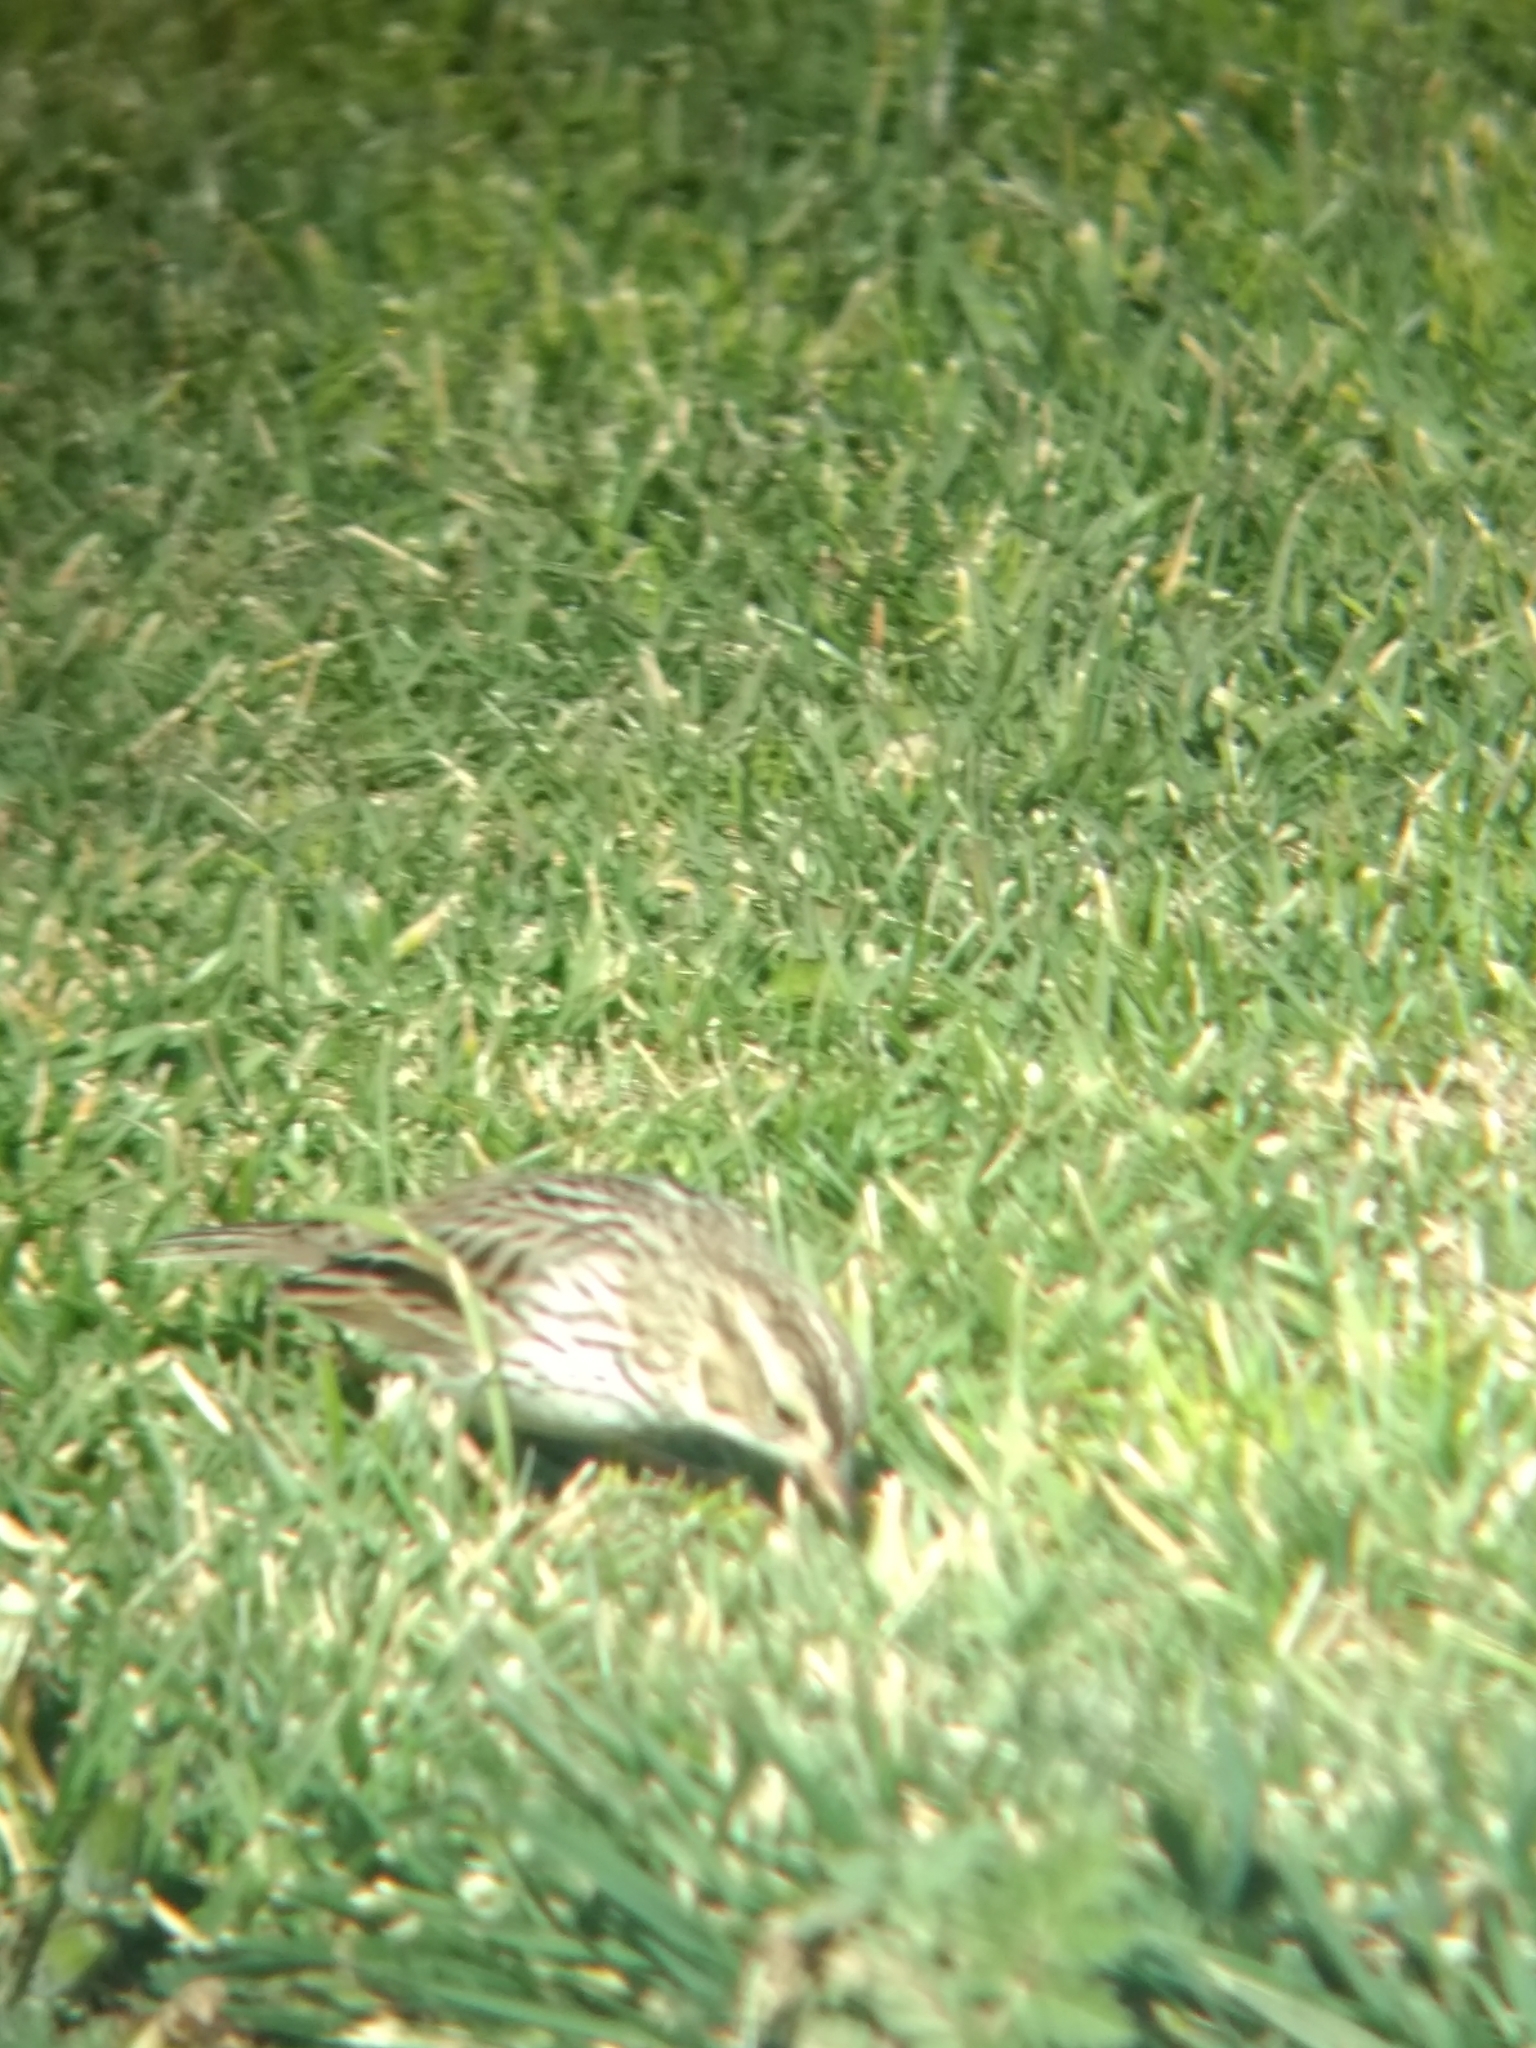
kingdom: Animalia
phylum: Chordata
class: Aves
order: Passeriformes
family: Passerellidae
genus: Passerculus
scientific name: Passerculus sandwichensis
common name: Savannah sparrow
